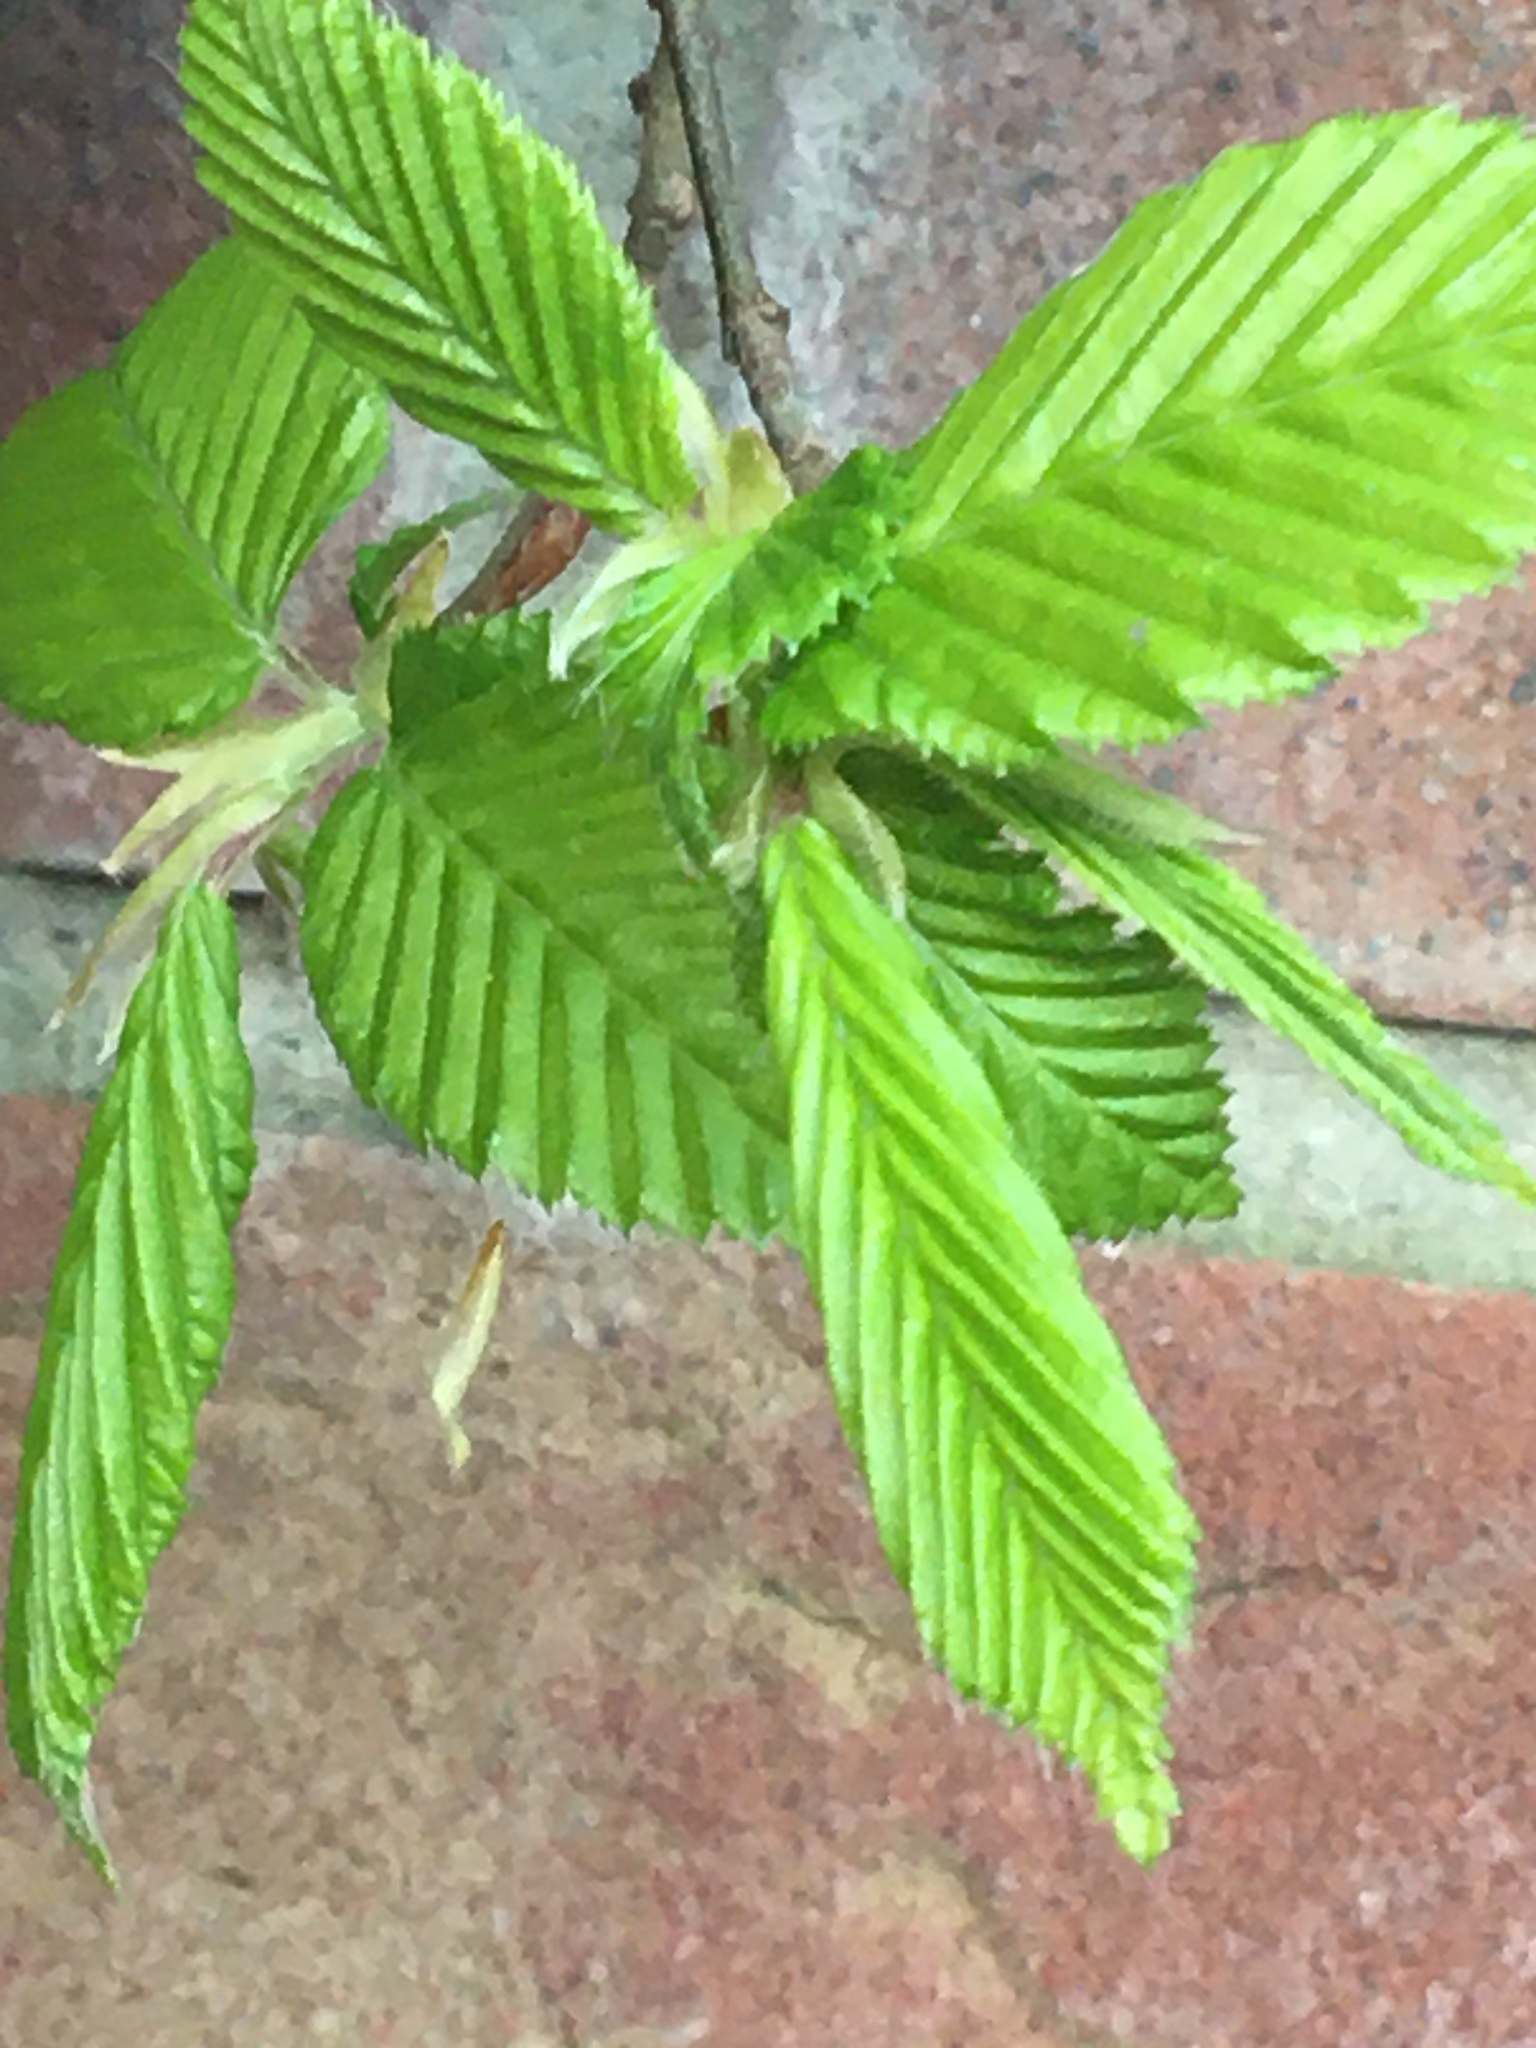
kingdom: Plantae
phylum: Tracheophyta
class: Magnoliopsida
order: Fagales
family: Betulaceae
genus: Carpinus
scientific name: Carpinus betulus
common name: Hornbeam
